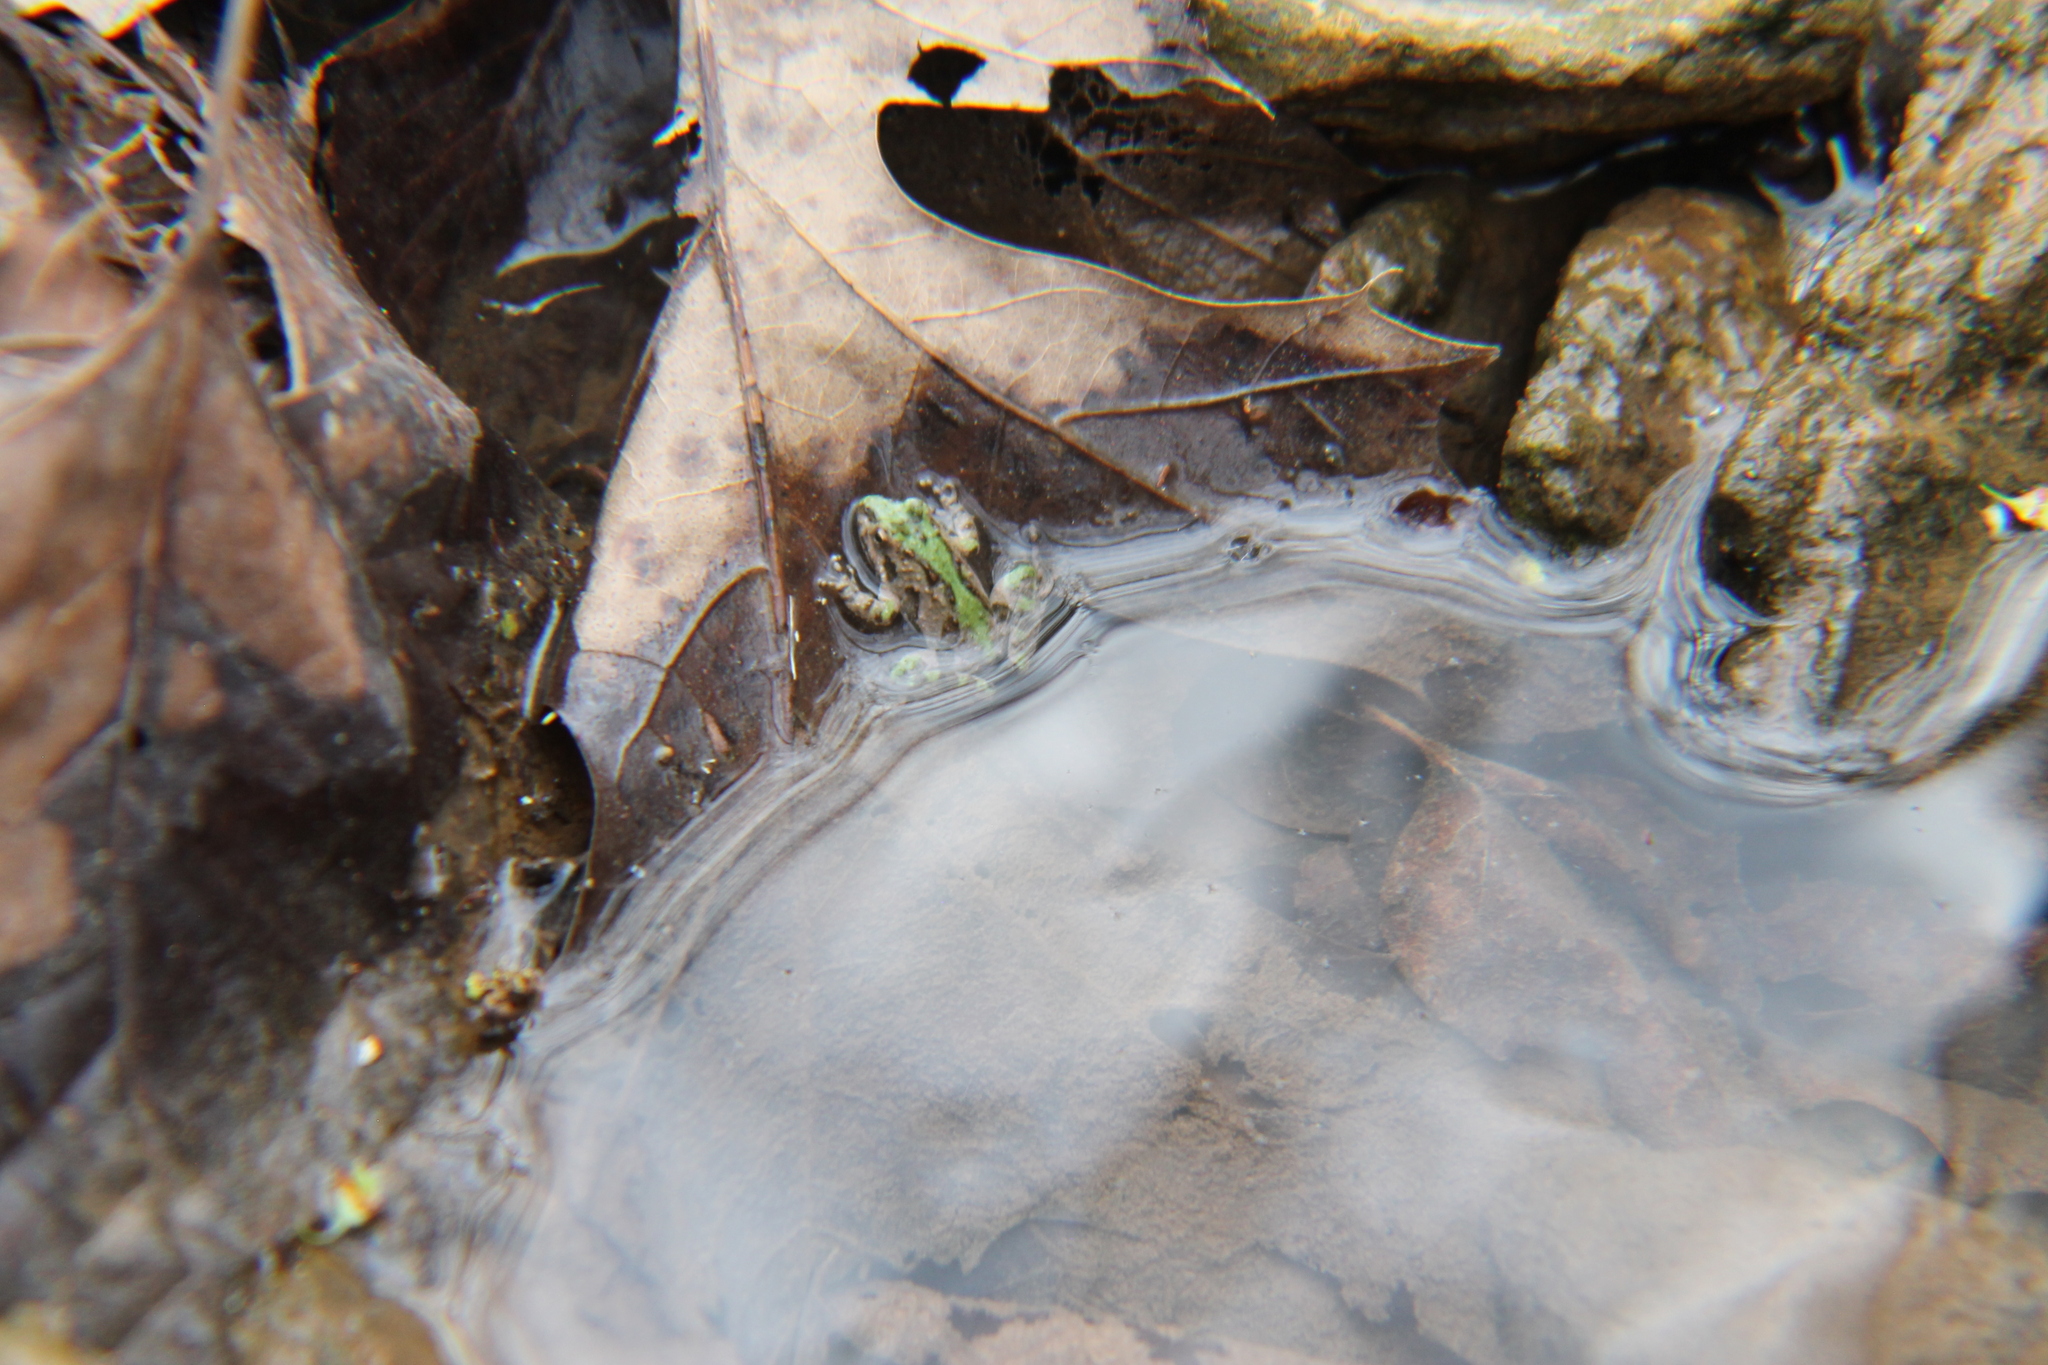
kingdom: Animalia
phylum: Chordata
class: Amphibia
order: Anura
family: Hylidae
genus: Acris
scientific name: Acris crepitans
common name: Northern cricket frog
